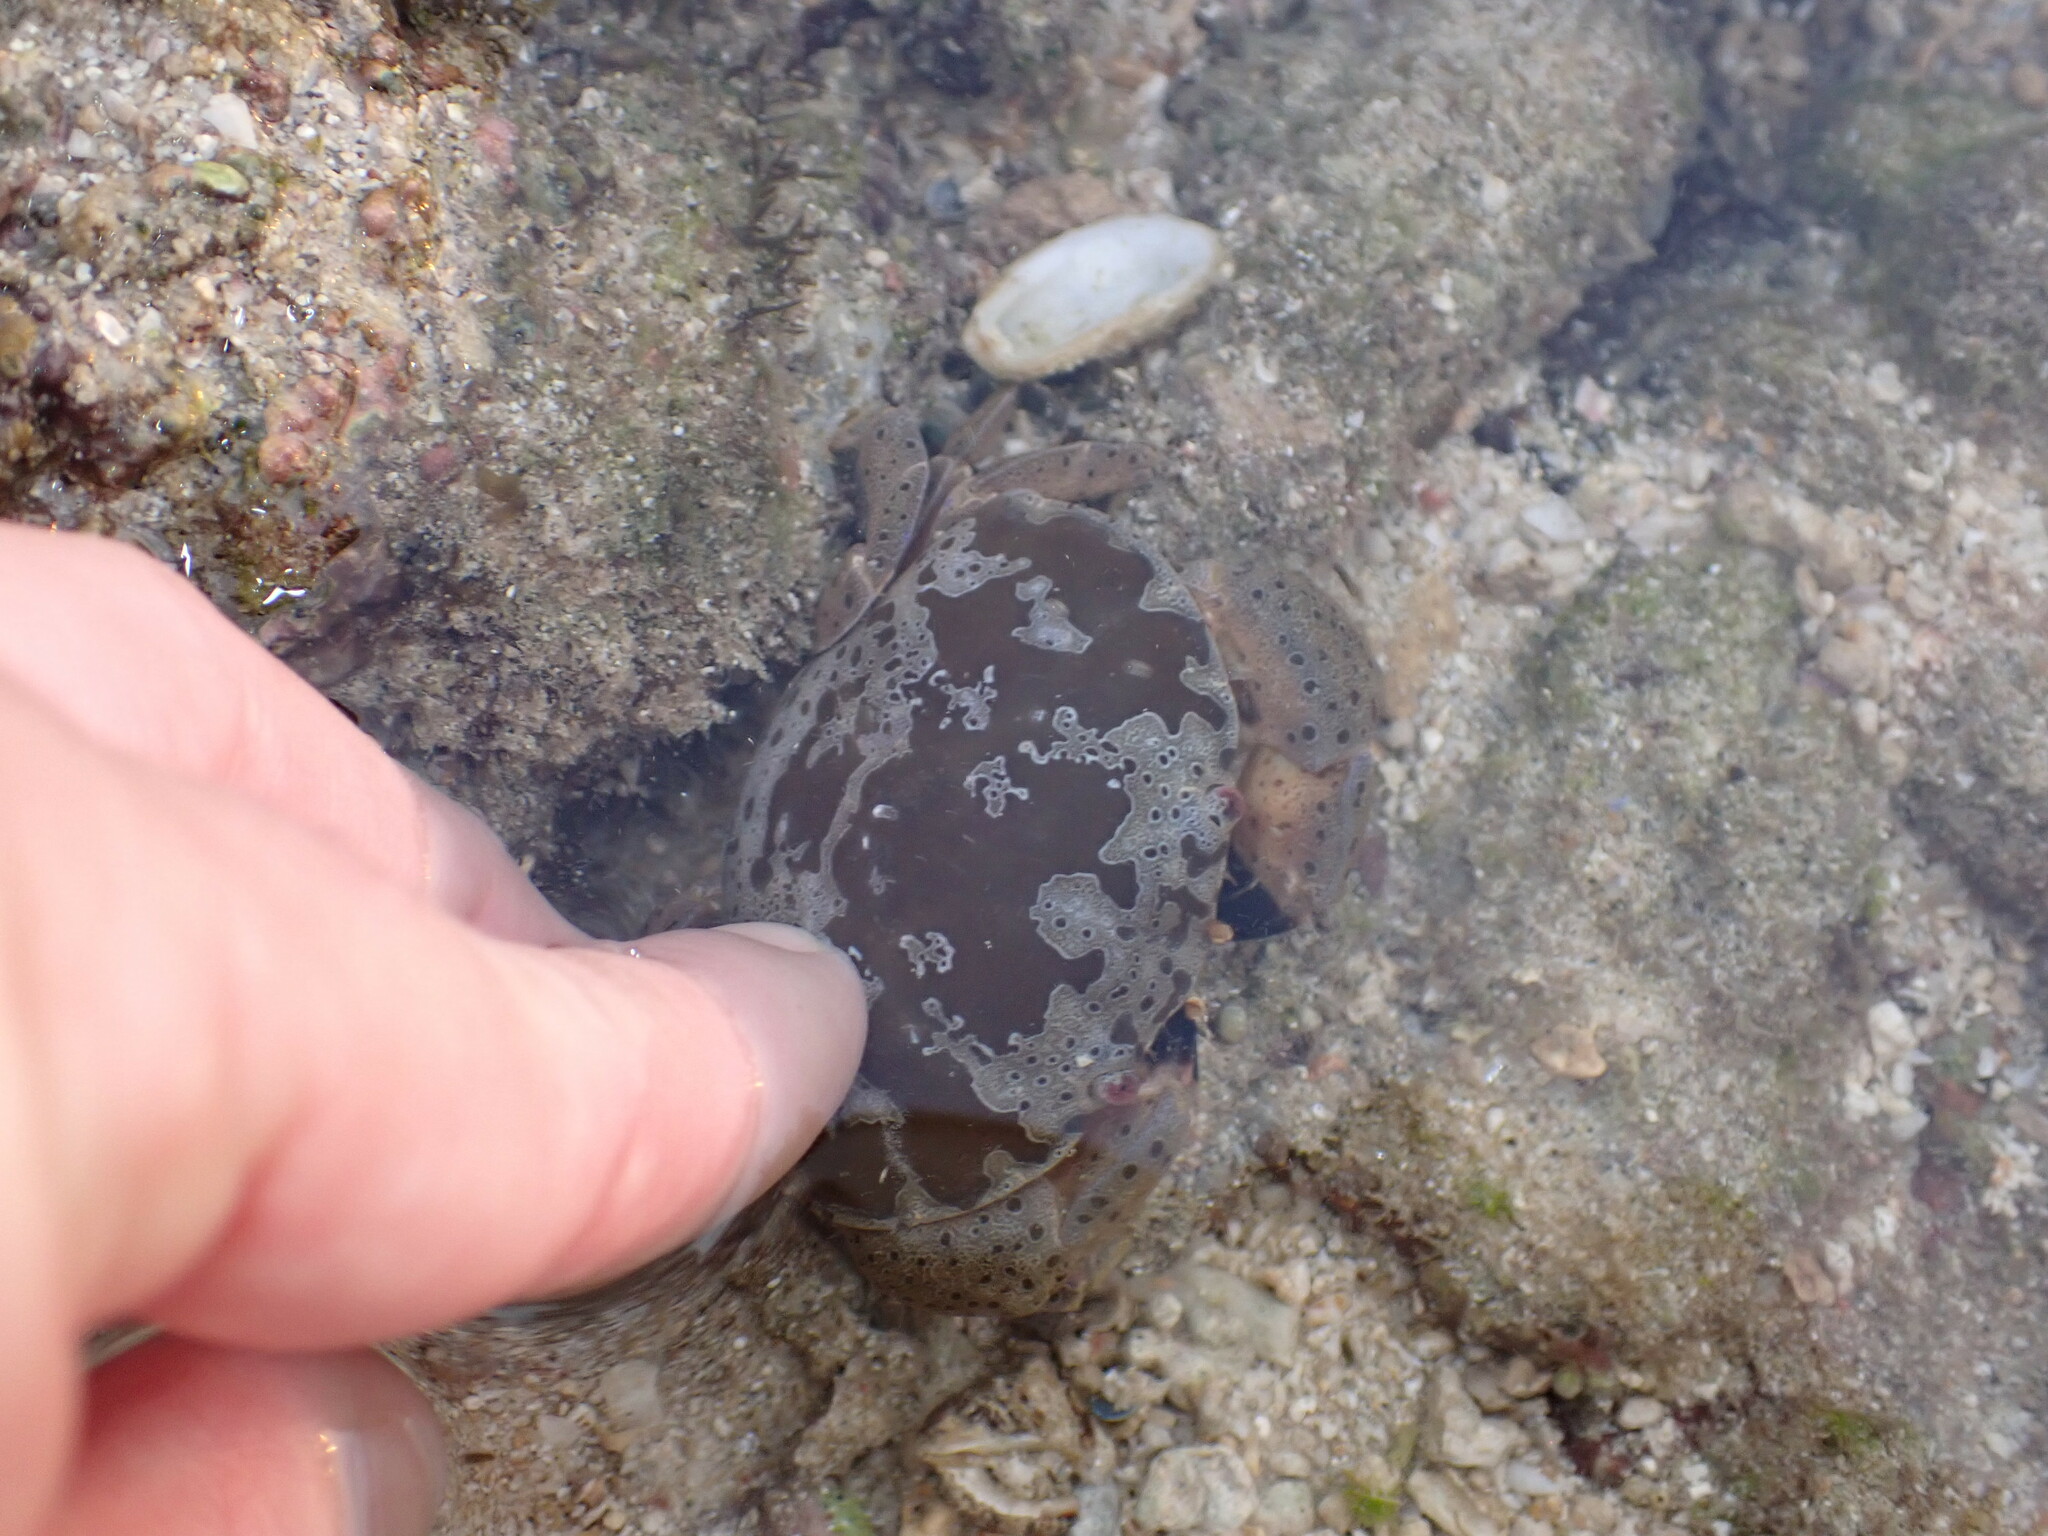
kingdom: Animalia
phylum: Arthropoda
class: Malacostraca
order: Decapoda
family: Xanthidae
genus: Atergatis
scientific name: Atergatis ocyroe
